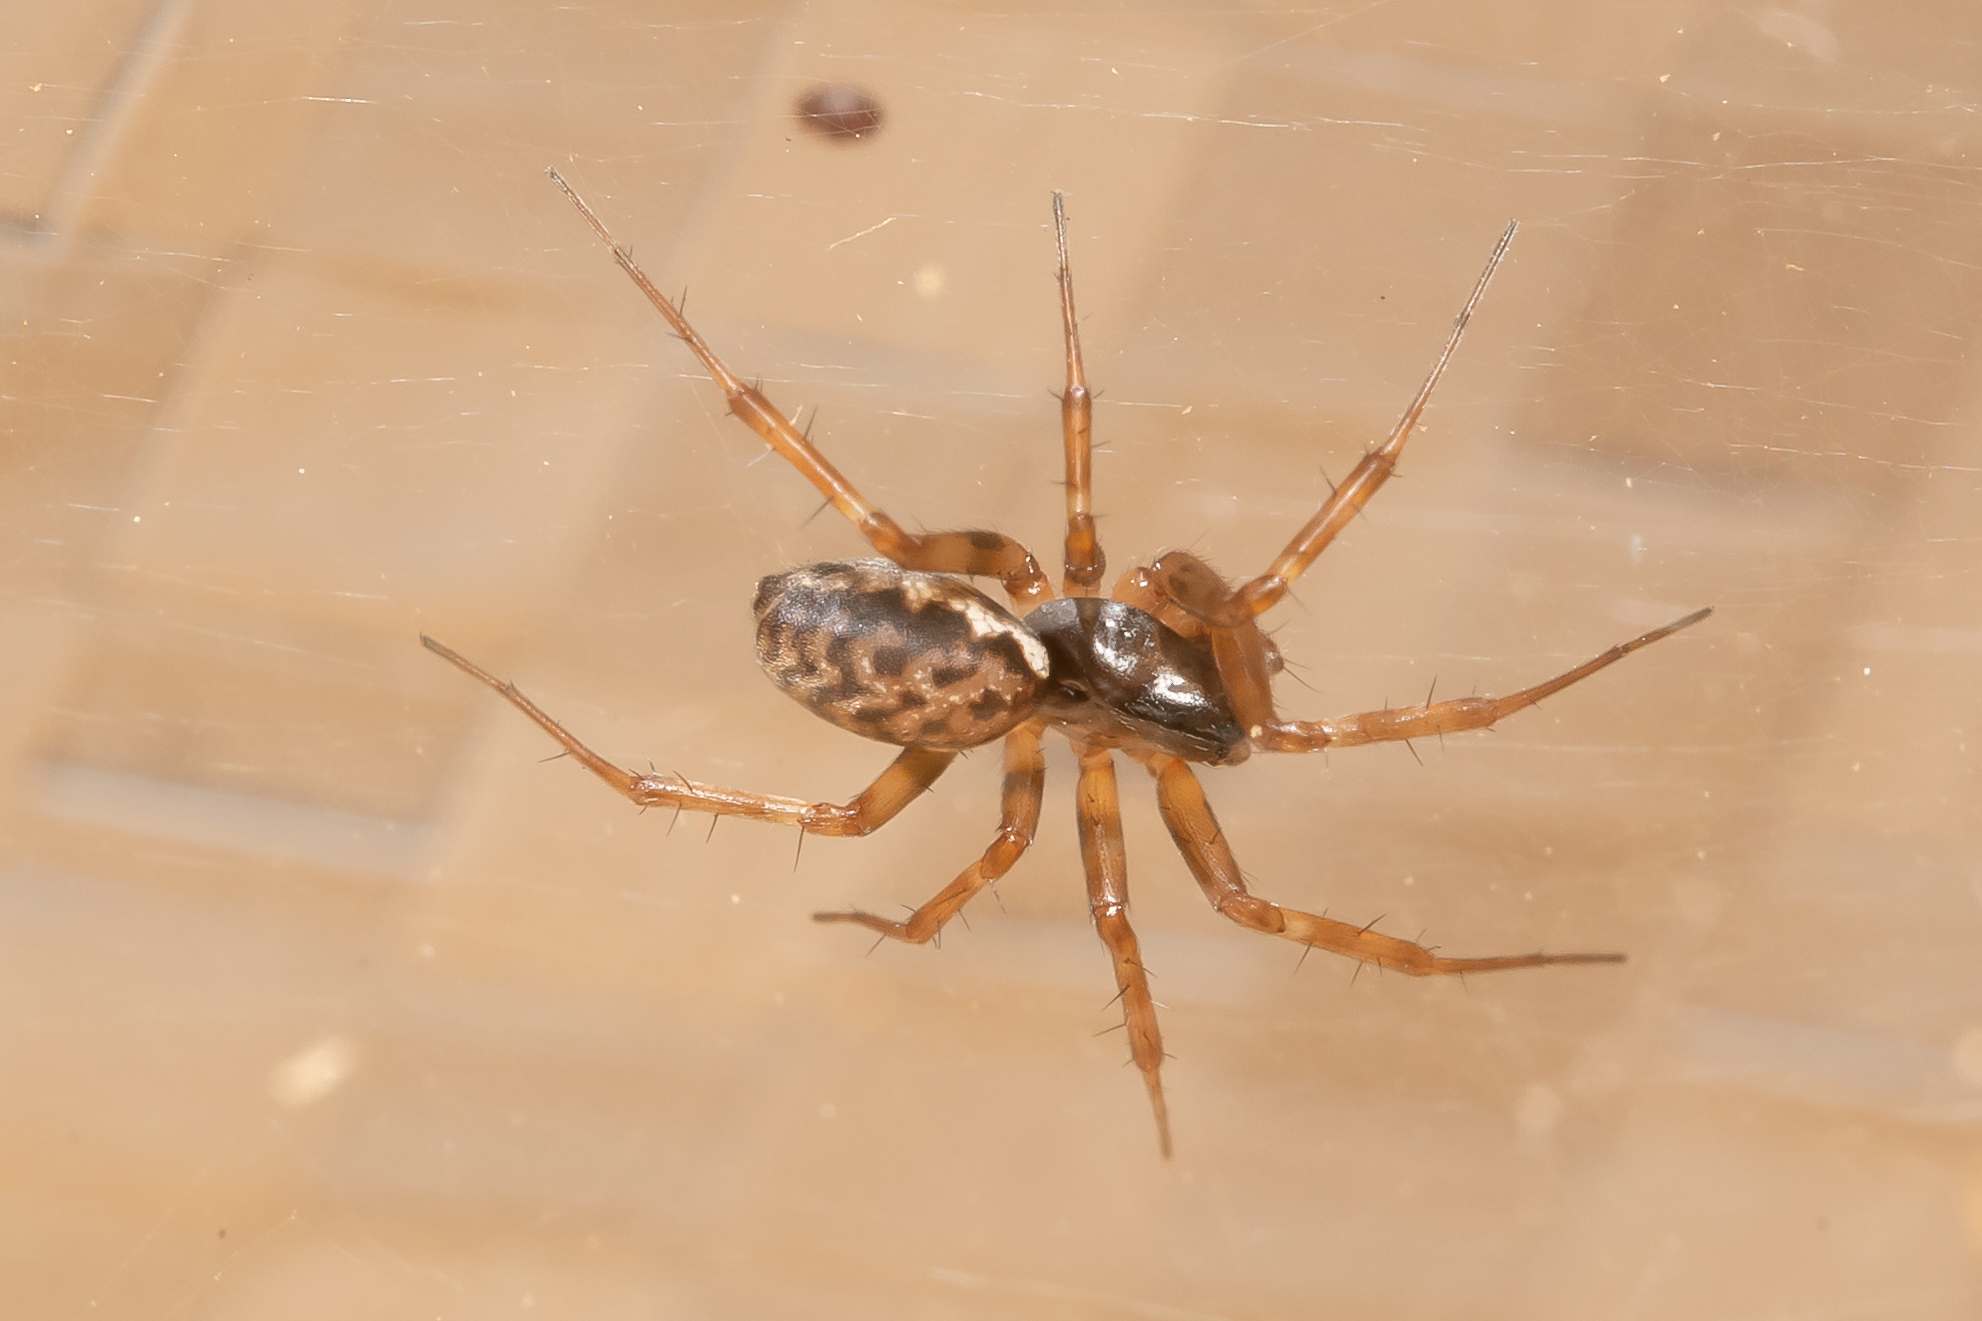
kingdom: Animalia
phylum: Arthropoda
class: Arachnida
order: Araneae
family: Linyphiidae
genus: Neriene
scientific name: Neriene clathrata
